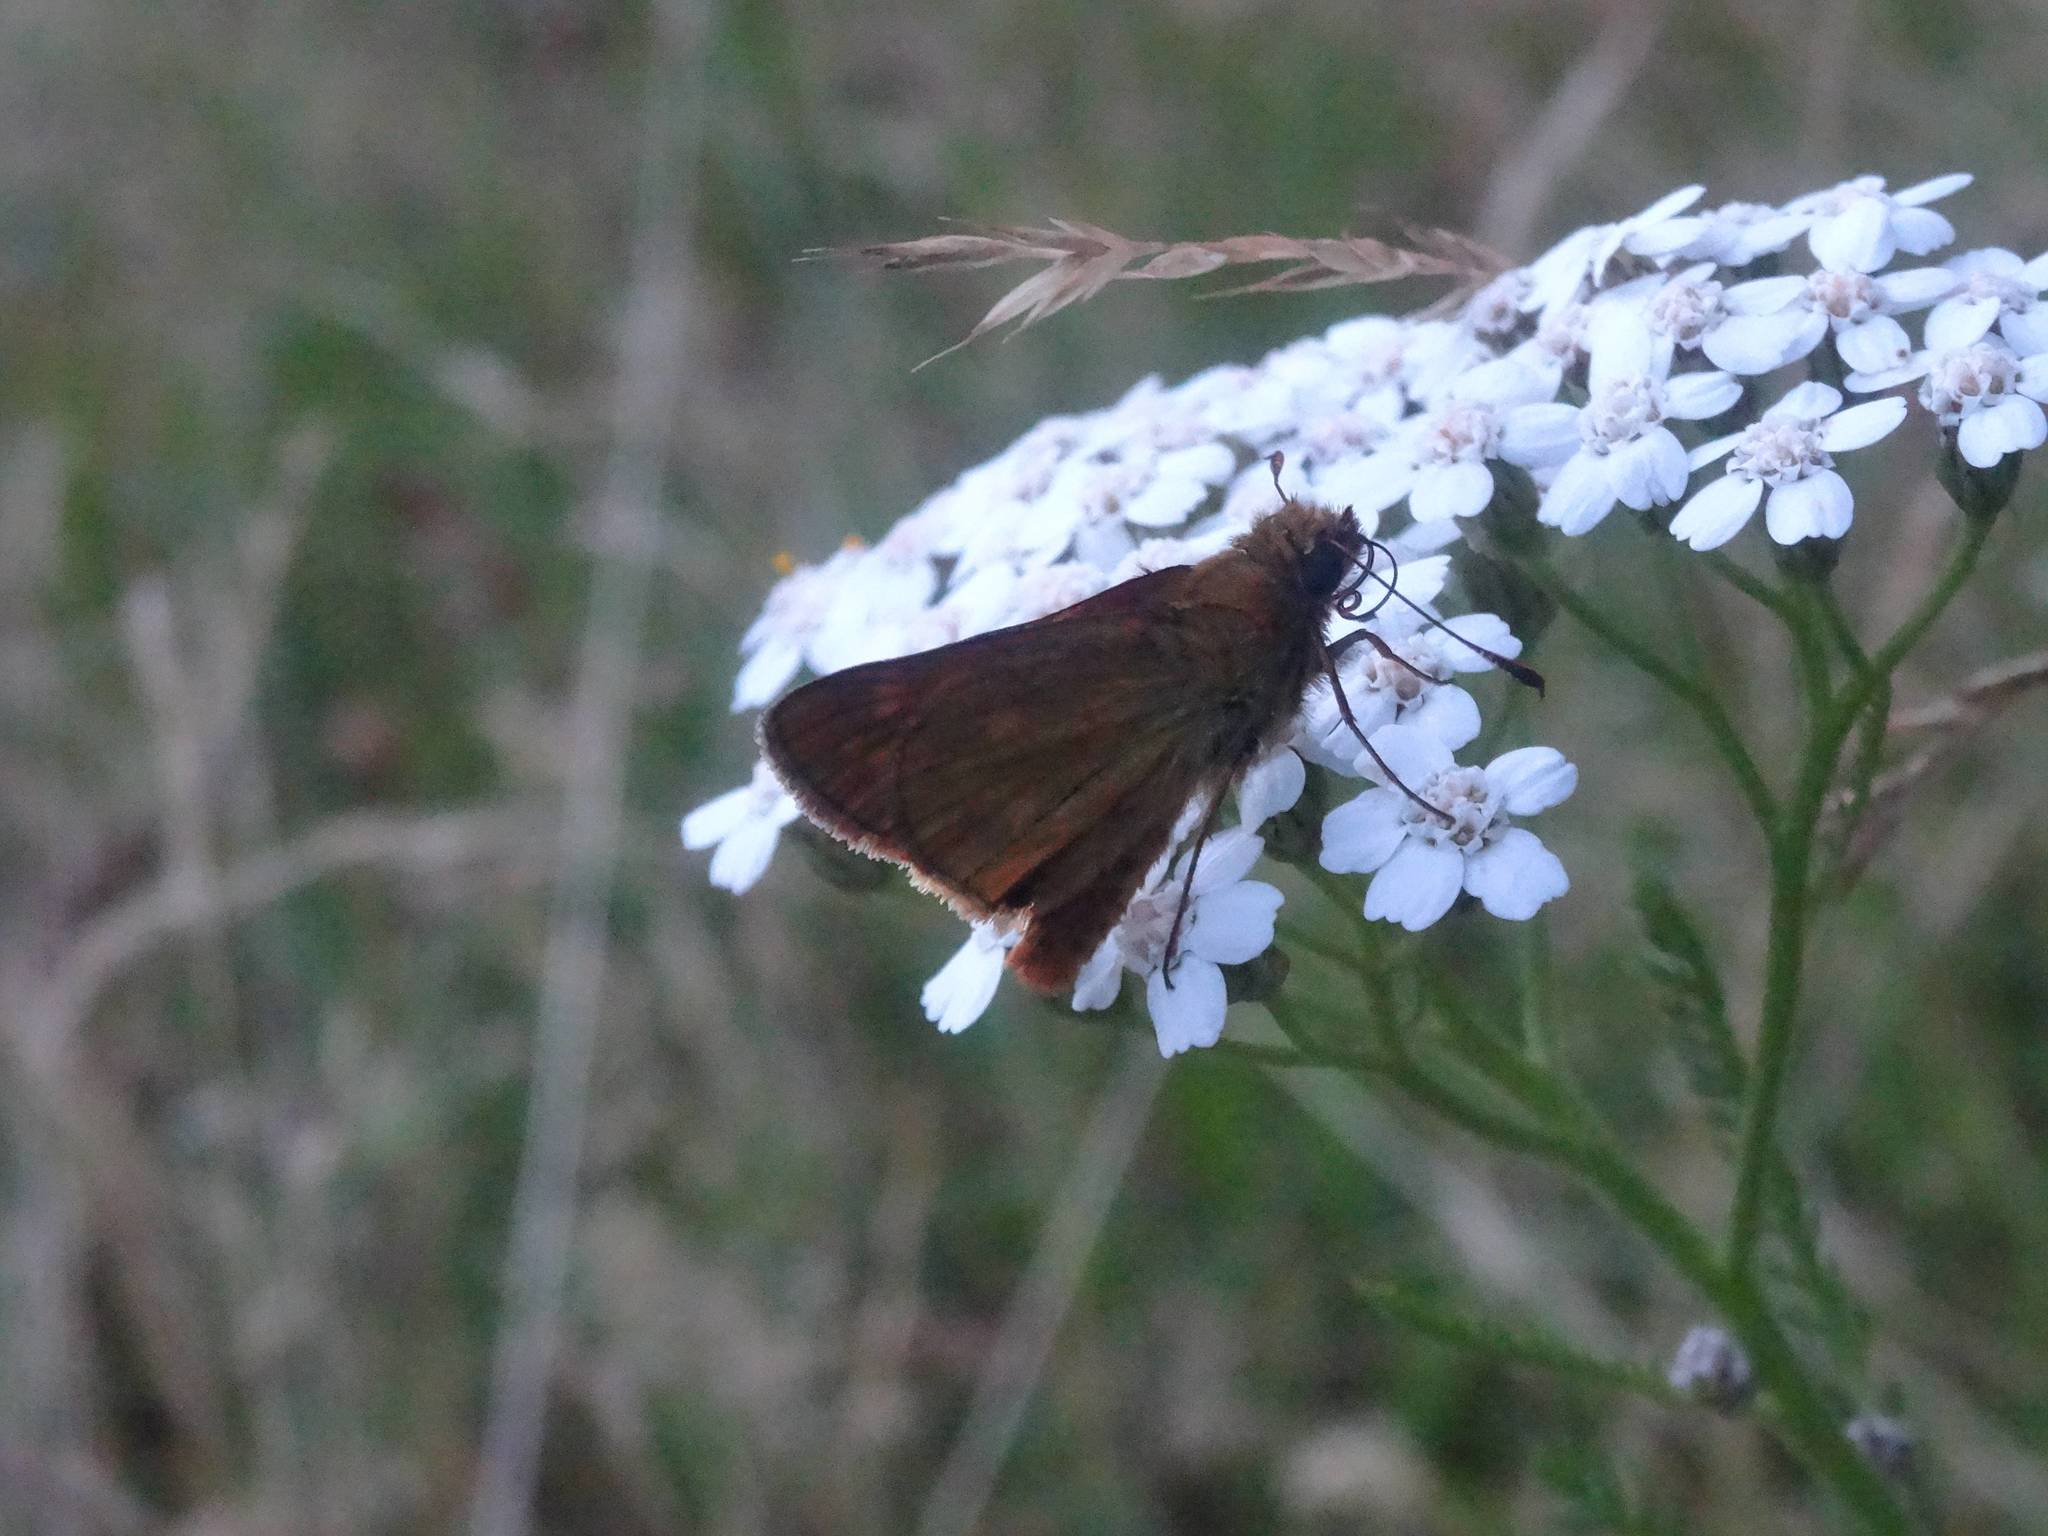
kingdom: Animalia
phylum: Arthropoda
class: Insecta
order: Lepidoptera
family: Hesperiidae
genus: Ochlodes
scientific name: Ochlodes venata
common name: Large skipper
